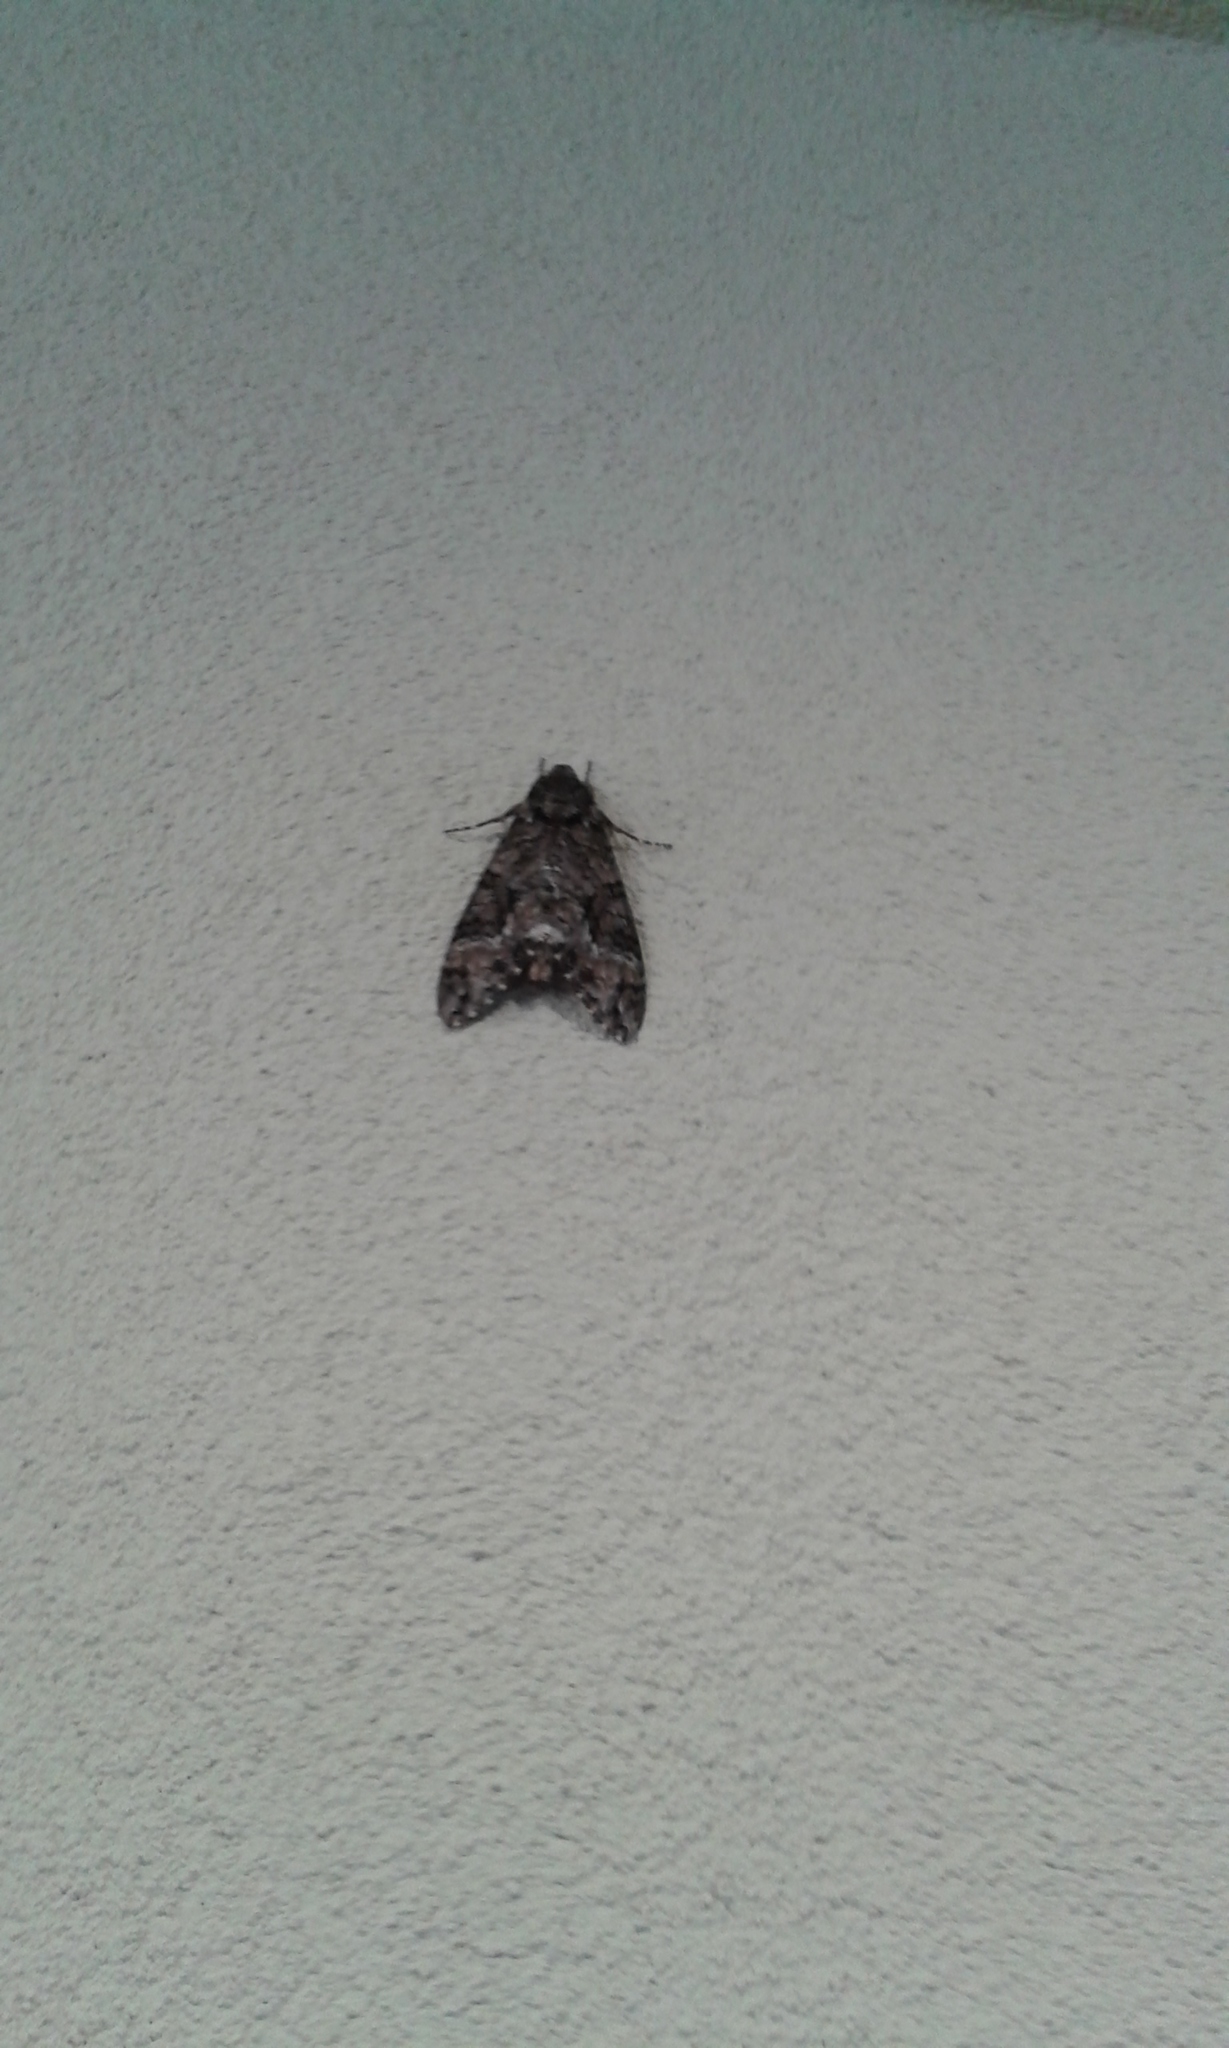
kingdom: Animalia
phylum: Arthropoda
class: Insecta
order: Lepidoptera
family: Sphingidae
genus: Agrius
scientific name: Agrius cingulata
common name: Pink-spotted hawkmoth
